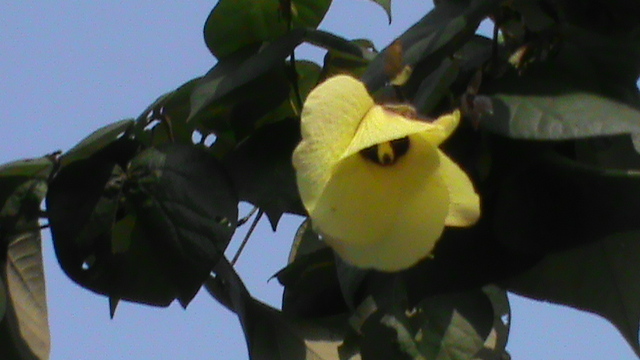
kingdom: Plantae
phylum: Tracheophyta
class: Magnoliopsida
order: Malvales
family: Malvaceae
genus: Talipariti
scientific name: Talipariti tiliaceum
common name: Sea hibiscus
